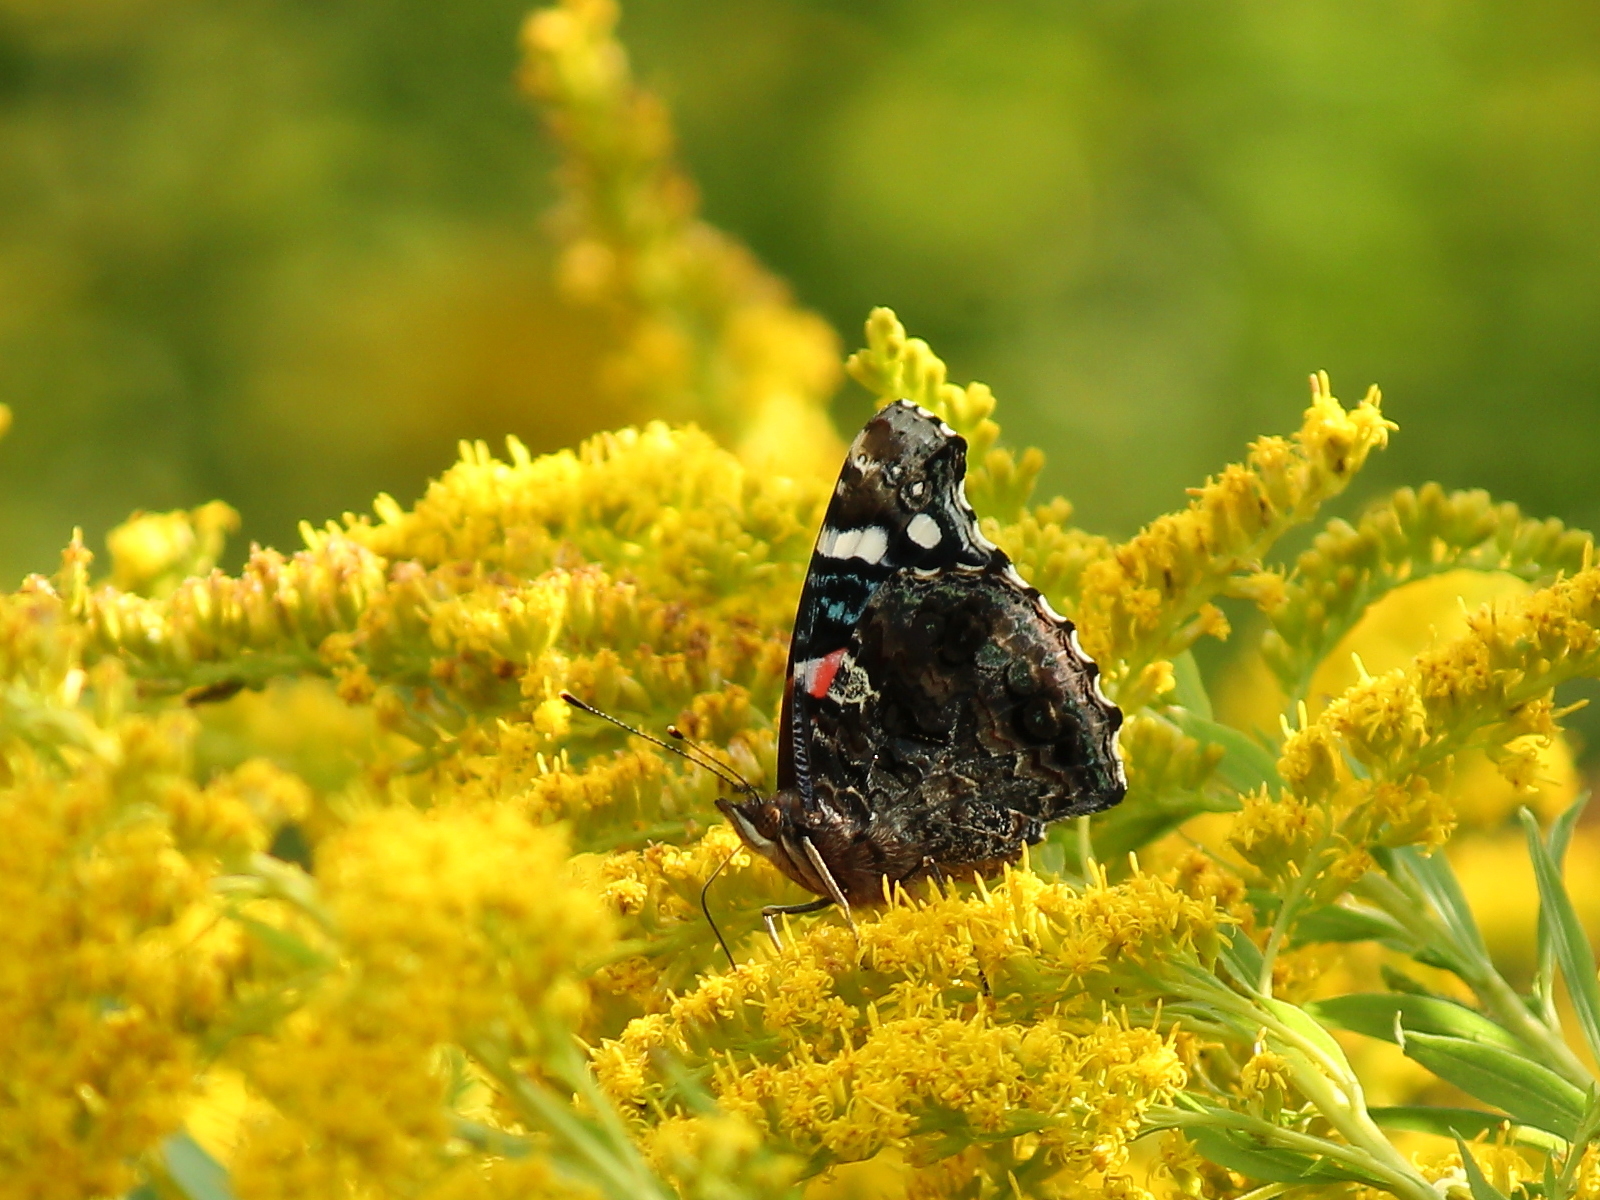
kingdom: Animalia
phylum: Arthropoda
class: Insecta
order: Lepidoptera
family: Nymphalidae
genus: Vanessa
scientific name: Vanessa atalanta
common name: Red admiral
